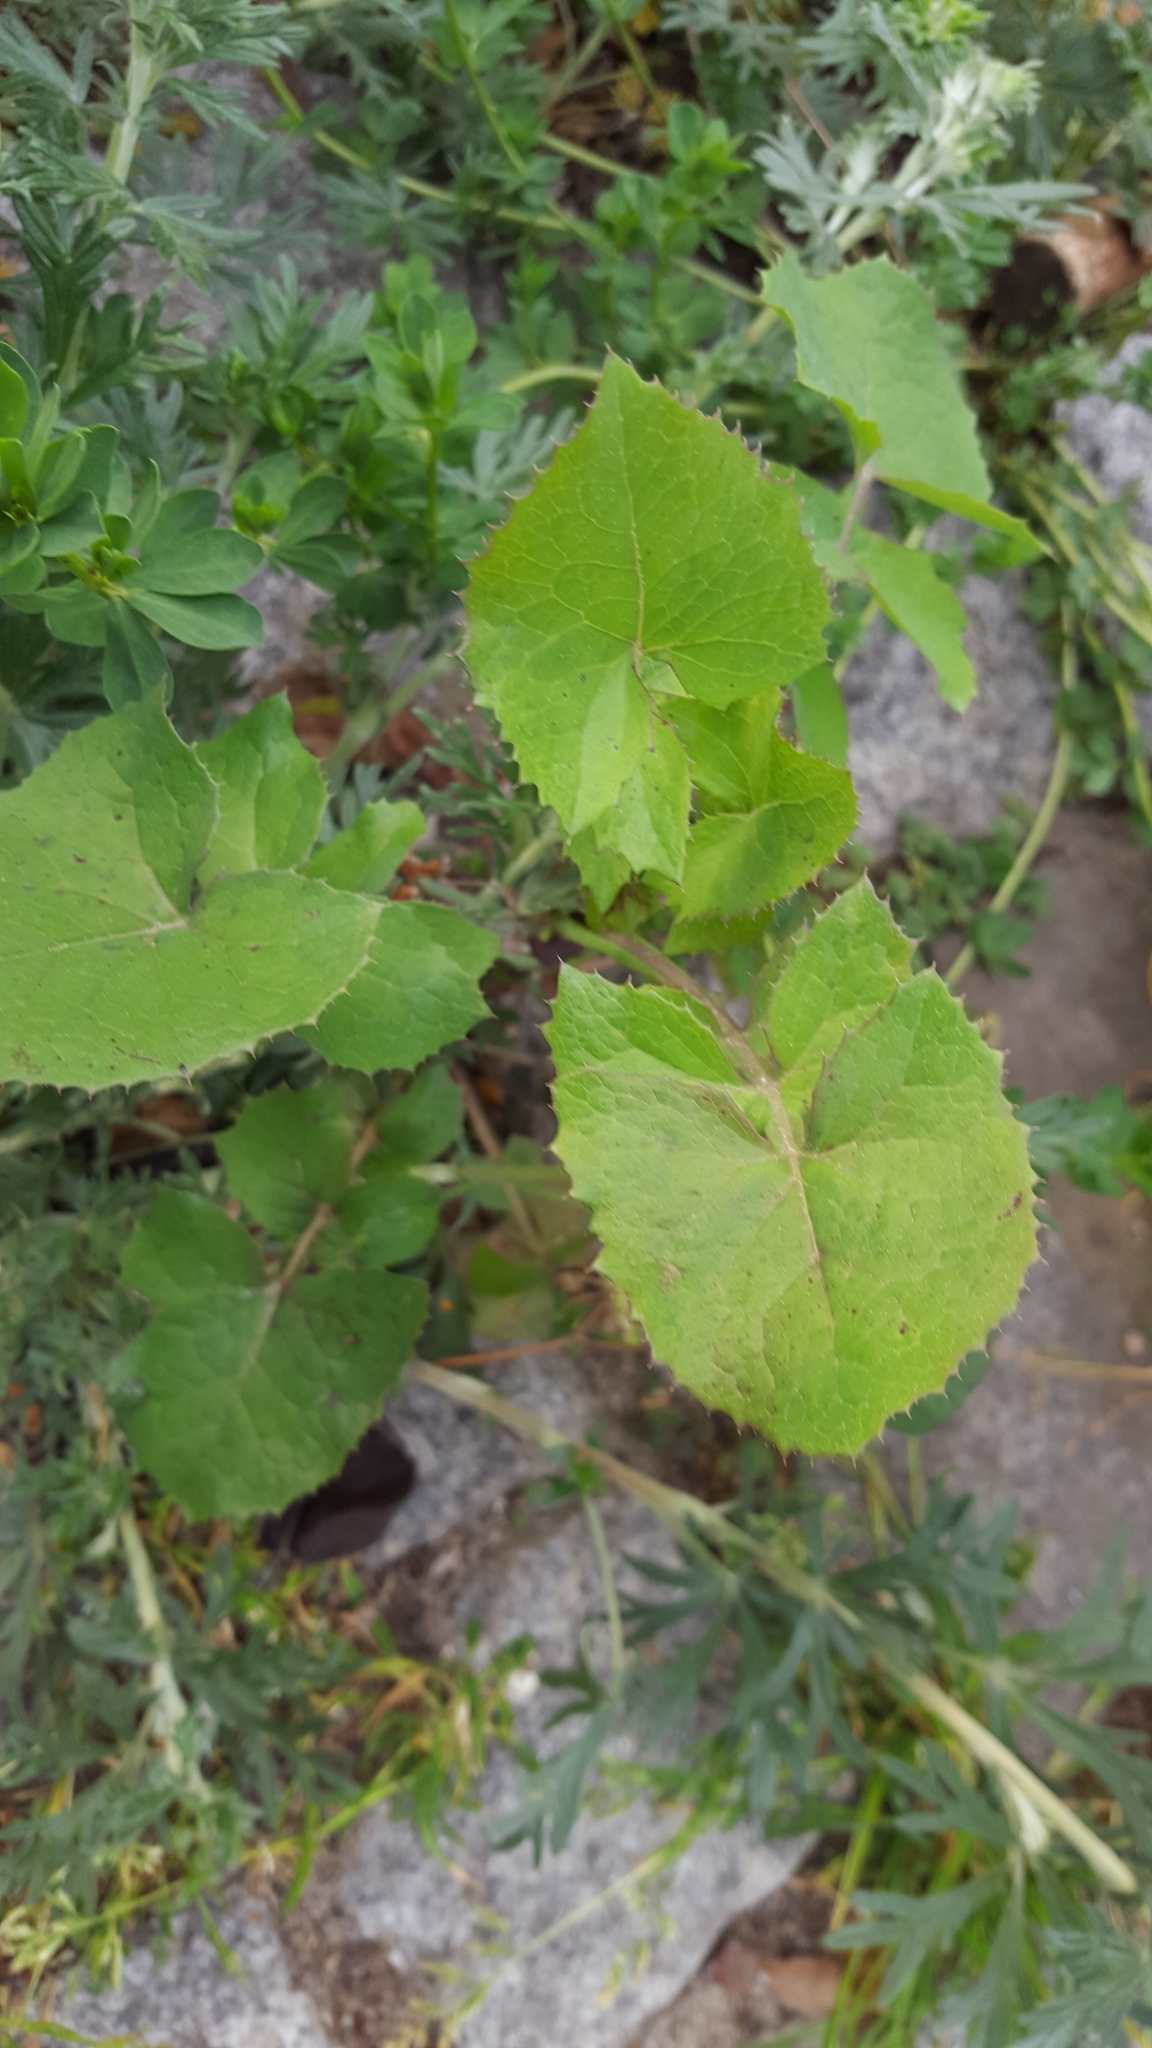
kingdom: Plantae
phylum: Tracheophyta
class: Magnoliopsida
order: Asterales
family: Asteraceae
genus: Sonchus
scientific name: Sonchus oleraceus
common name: Common sowthistle
